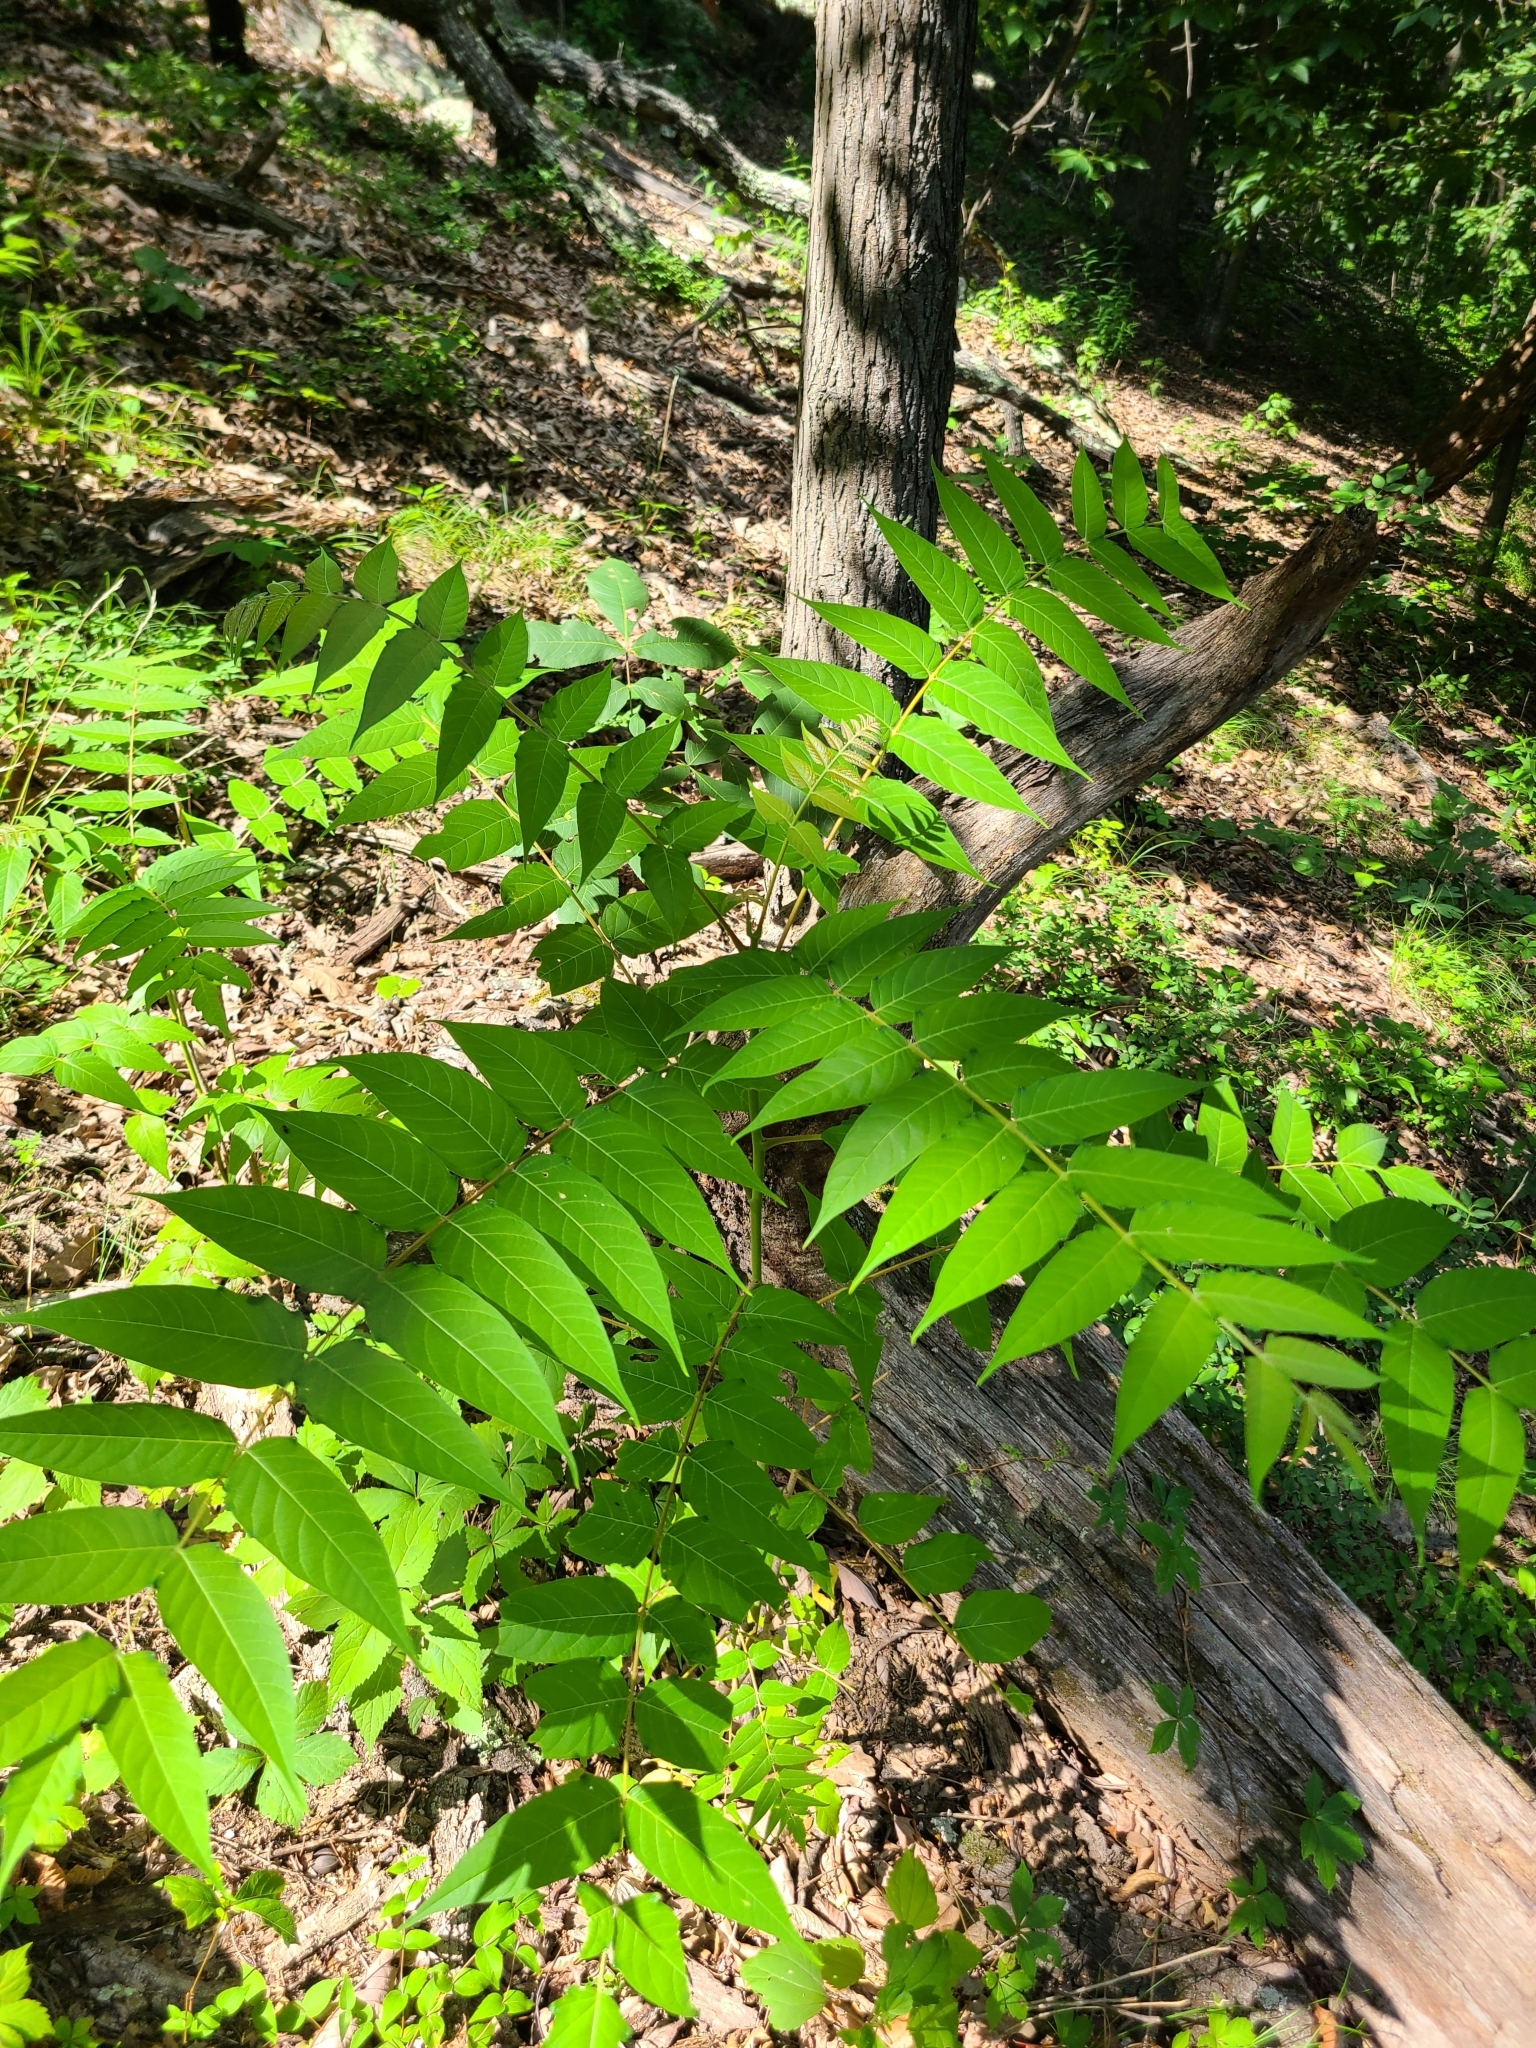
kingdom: Plantae
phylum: Tracheophyta
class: Magnoliopsida
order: Sapindales
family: Simaroubaceae
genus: Ailanthus
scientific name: Ailanthus altissima
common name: Tree-of-heaven
